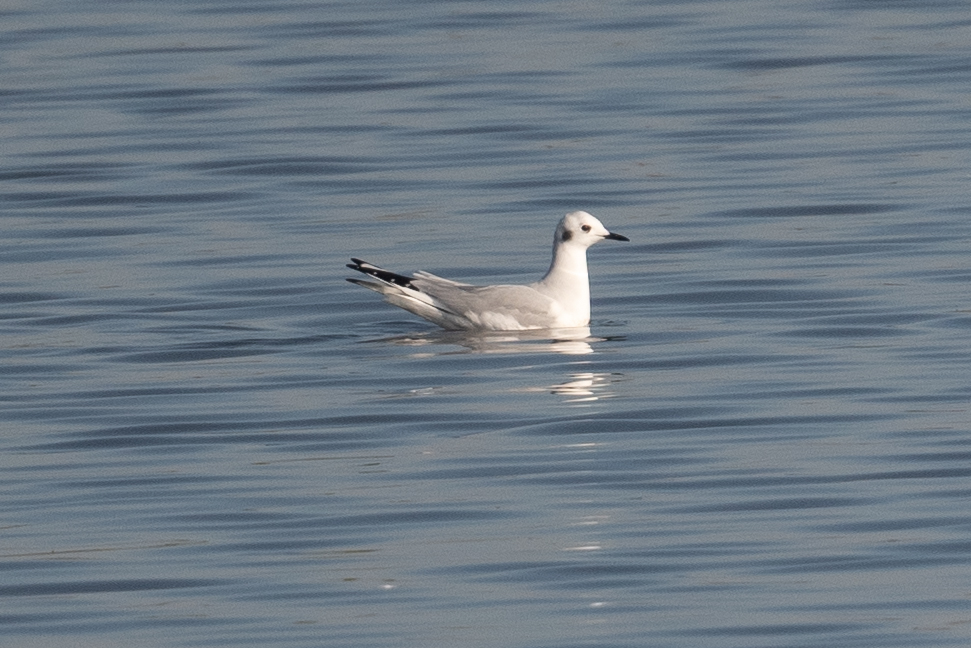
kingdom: Animalia
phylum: Chordata
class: Aves
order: Charadriiformes
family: Laridae
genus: Chroicocephalus
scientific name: Chroicocephalus philadelphia
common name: Bonaparte's gull
